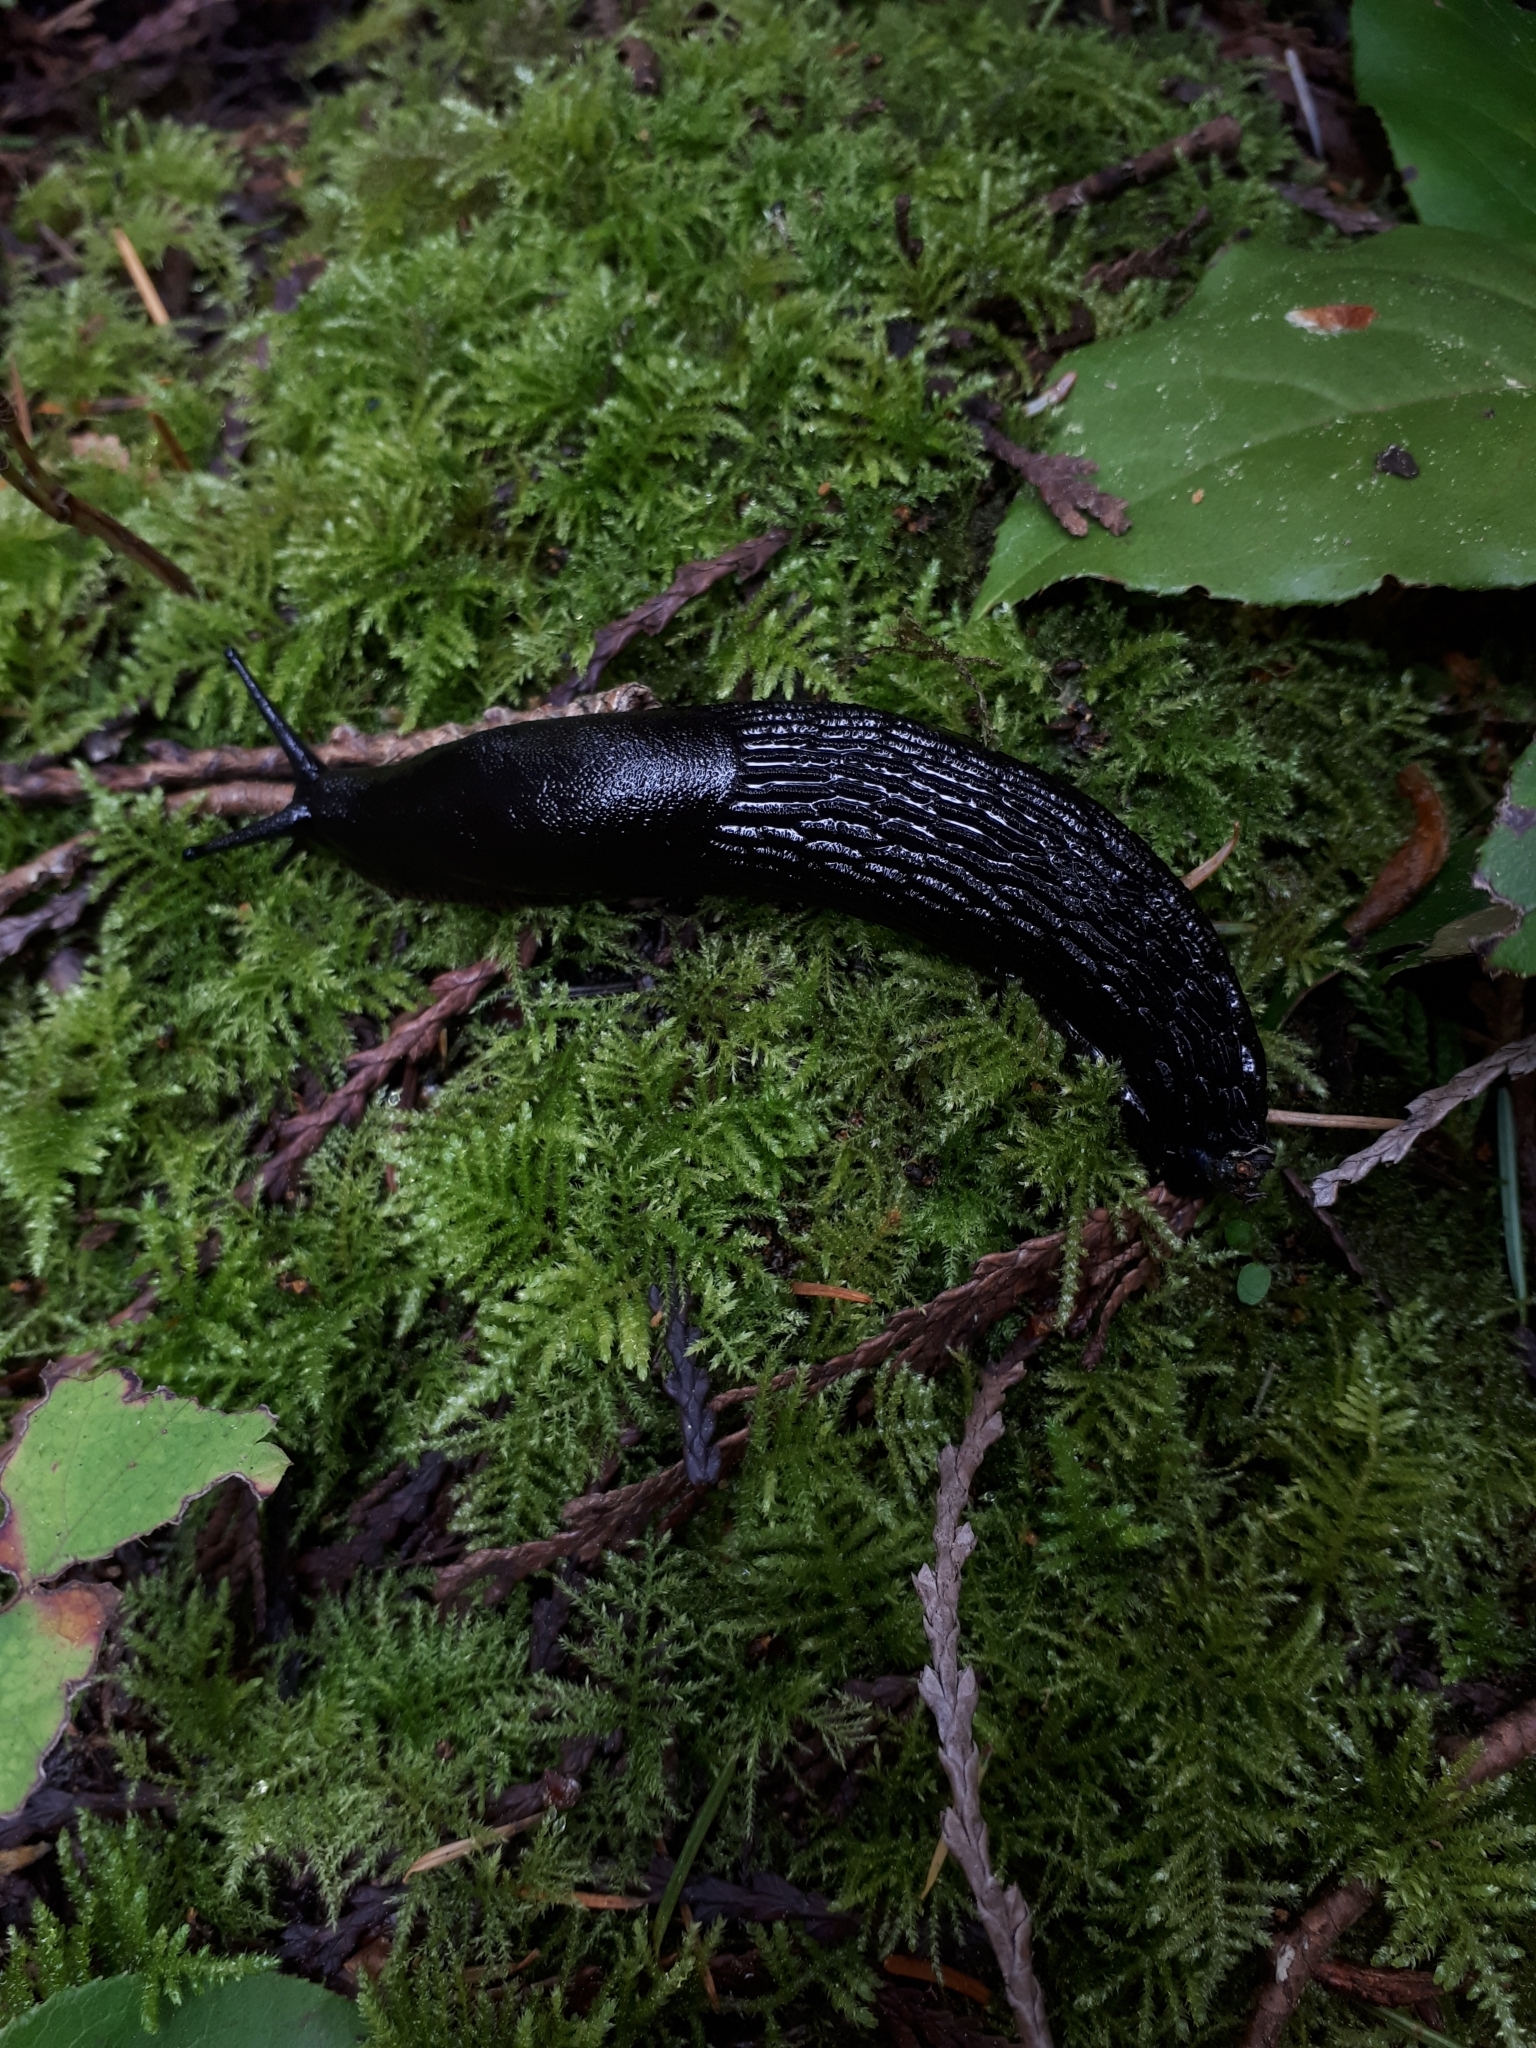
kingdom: Animalia
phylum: Mollusca
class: Gastropoda
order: Stylommatophora
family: Arionidae
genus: Arion
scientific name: Arion
